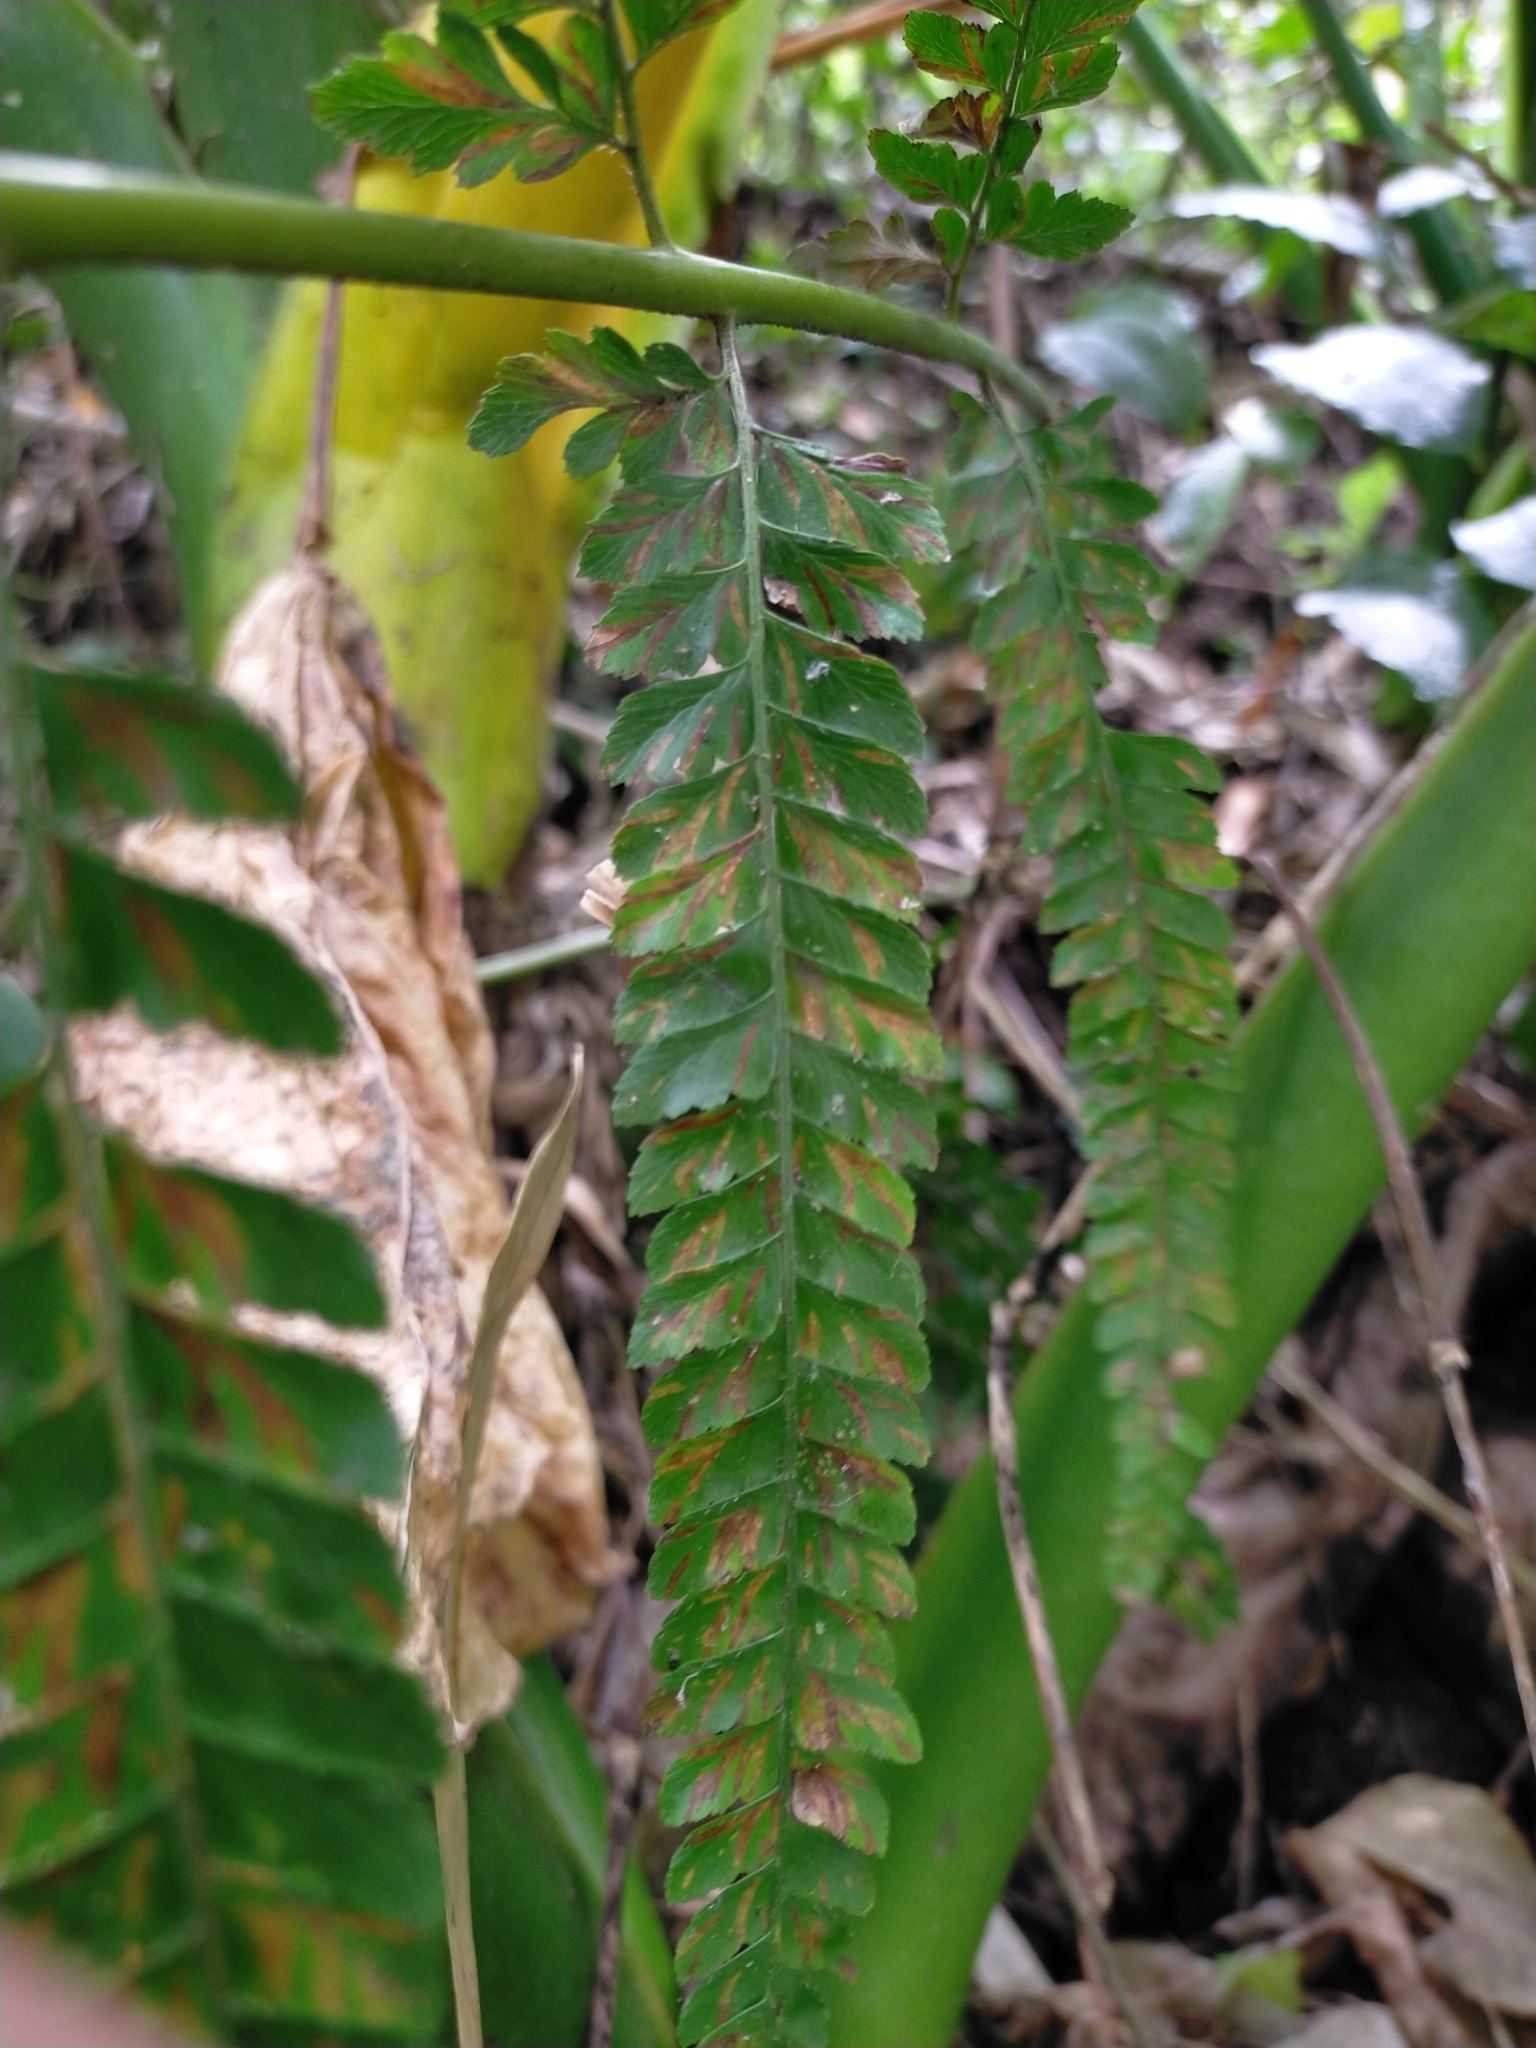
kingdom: Plantae
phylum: Tracheophyta
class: Polypodiopsida
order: Polypodiales
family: Dennstaedtiaceae
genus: Microlepia
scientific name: Microlepia strigosa
